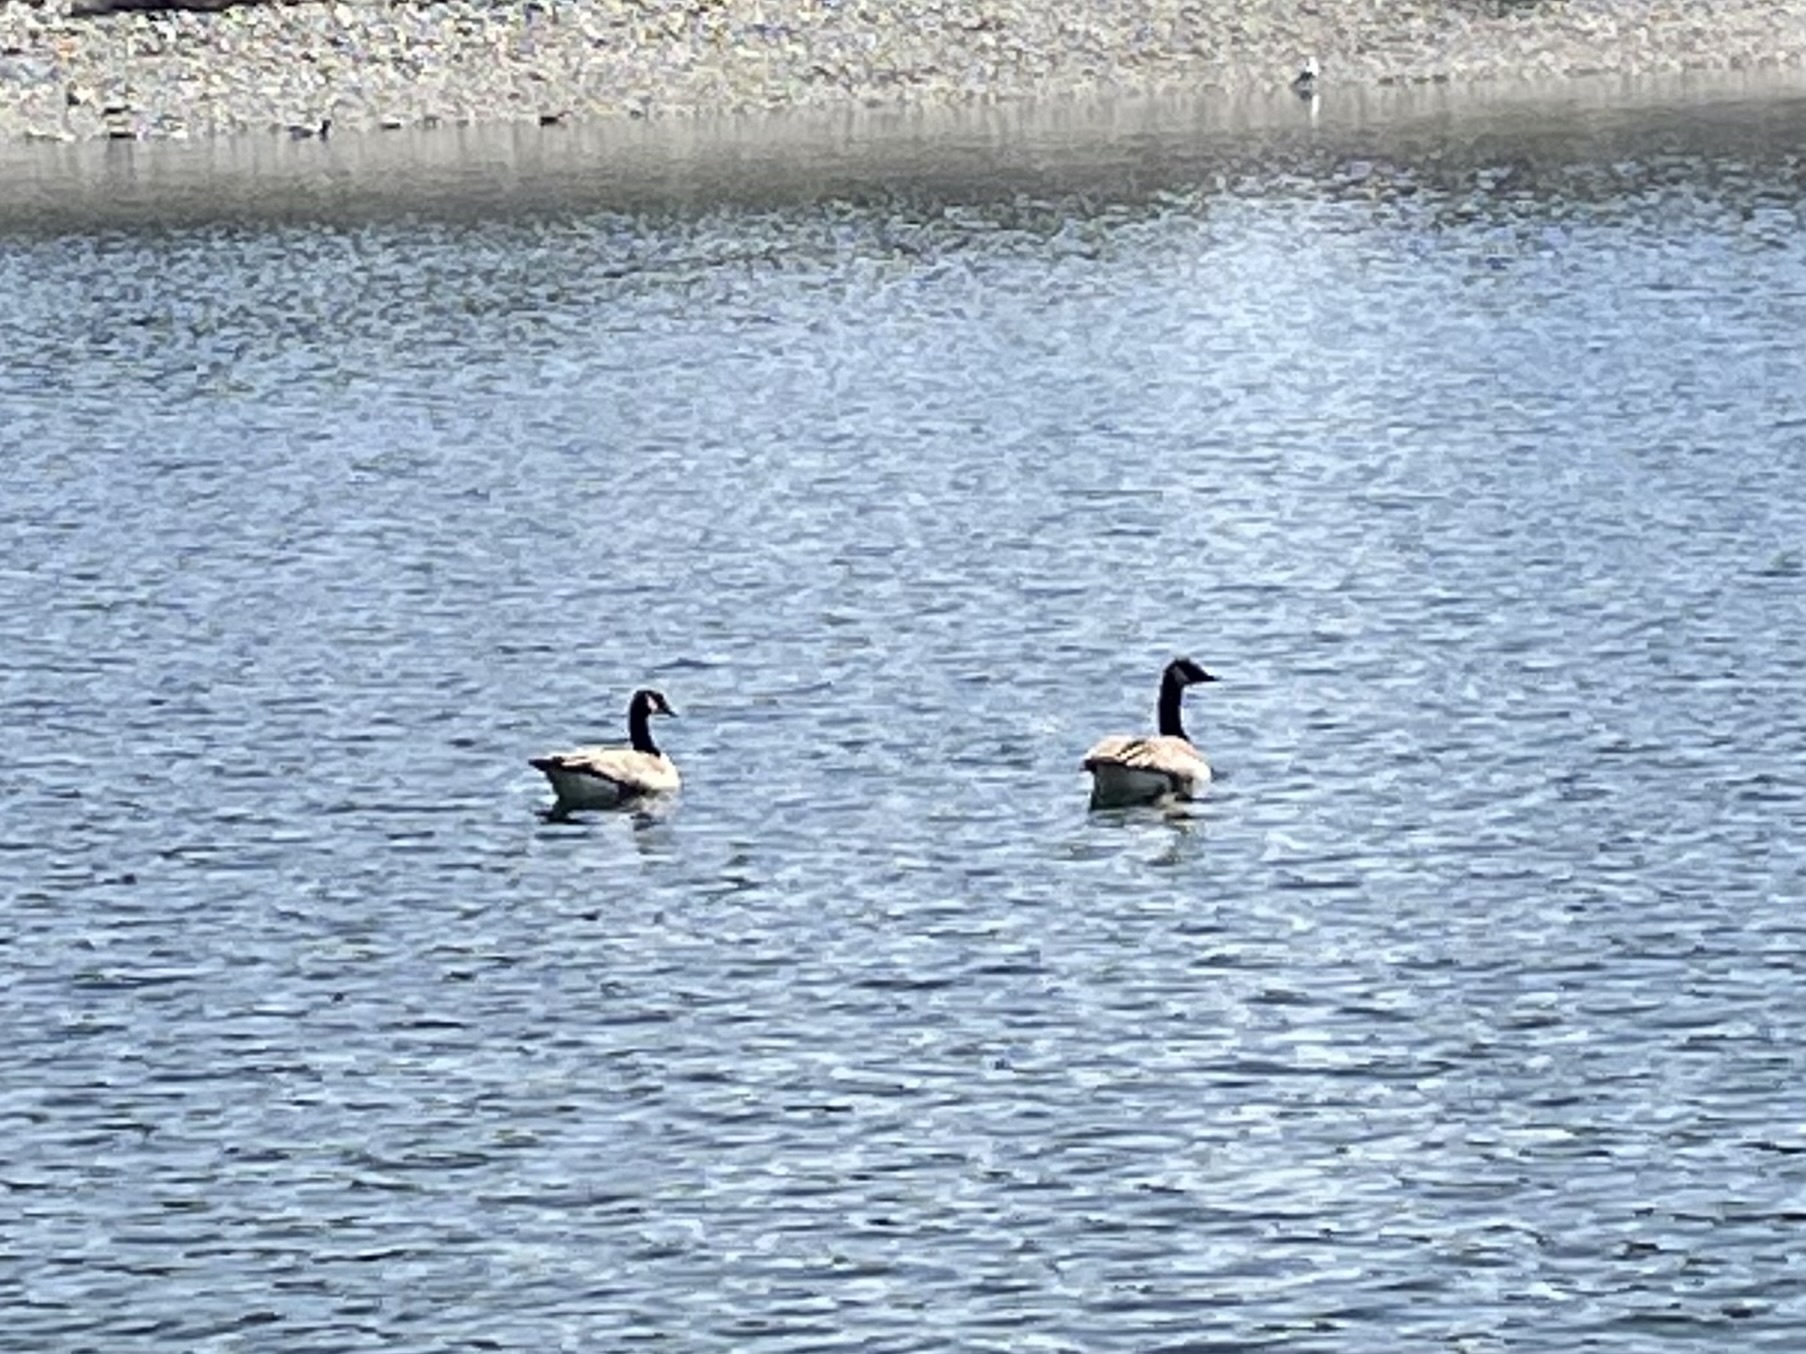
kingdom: Animalia
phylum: Chordata
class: Aves
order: Anseriformes
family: Anatidae
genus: Branta
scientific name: Branta canadensis
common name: Canada goose
